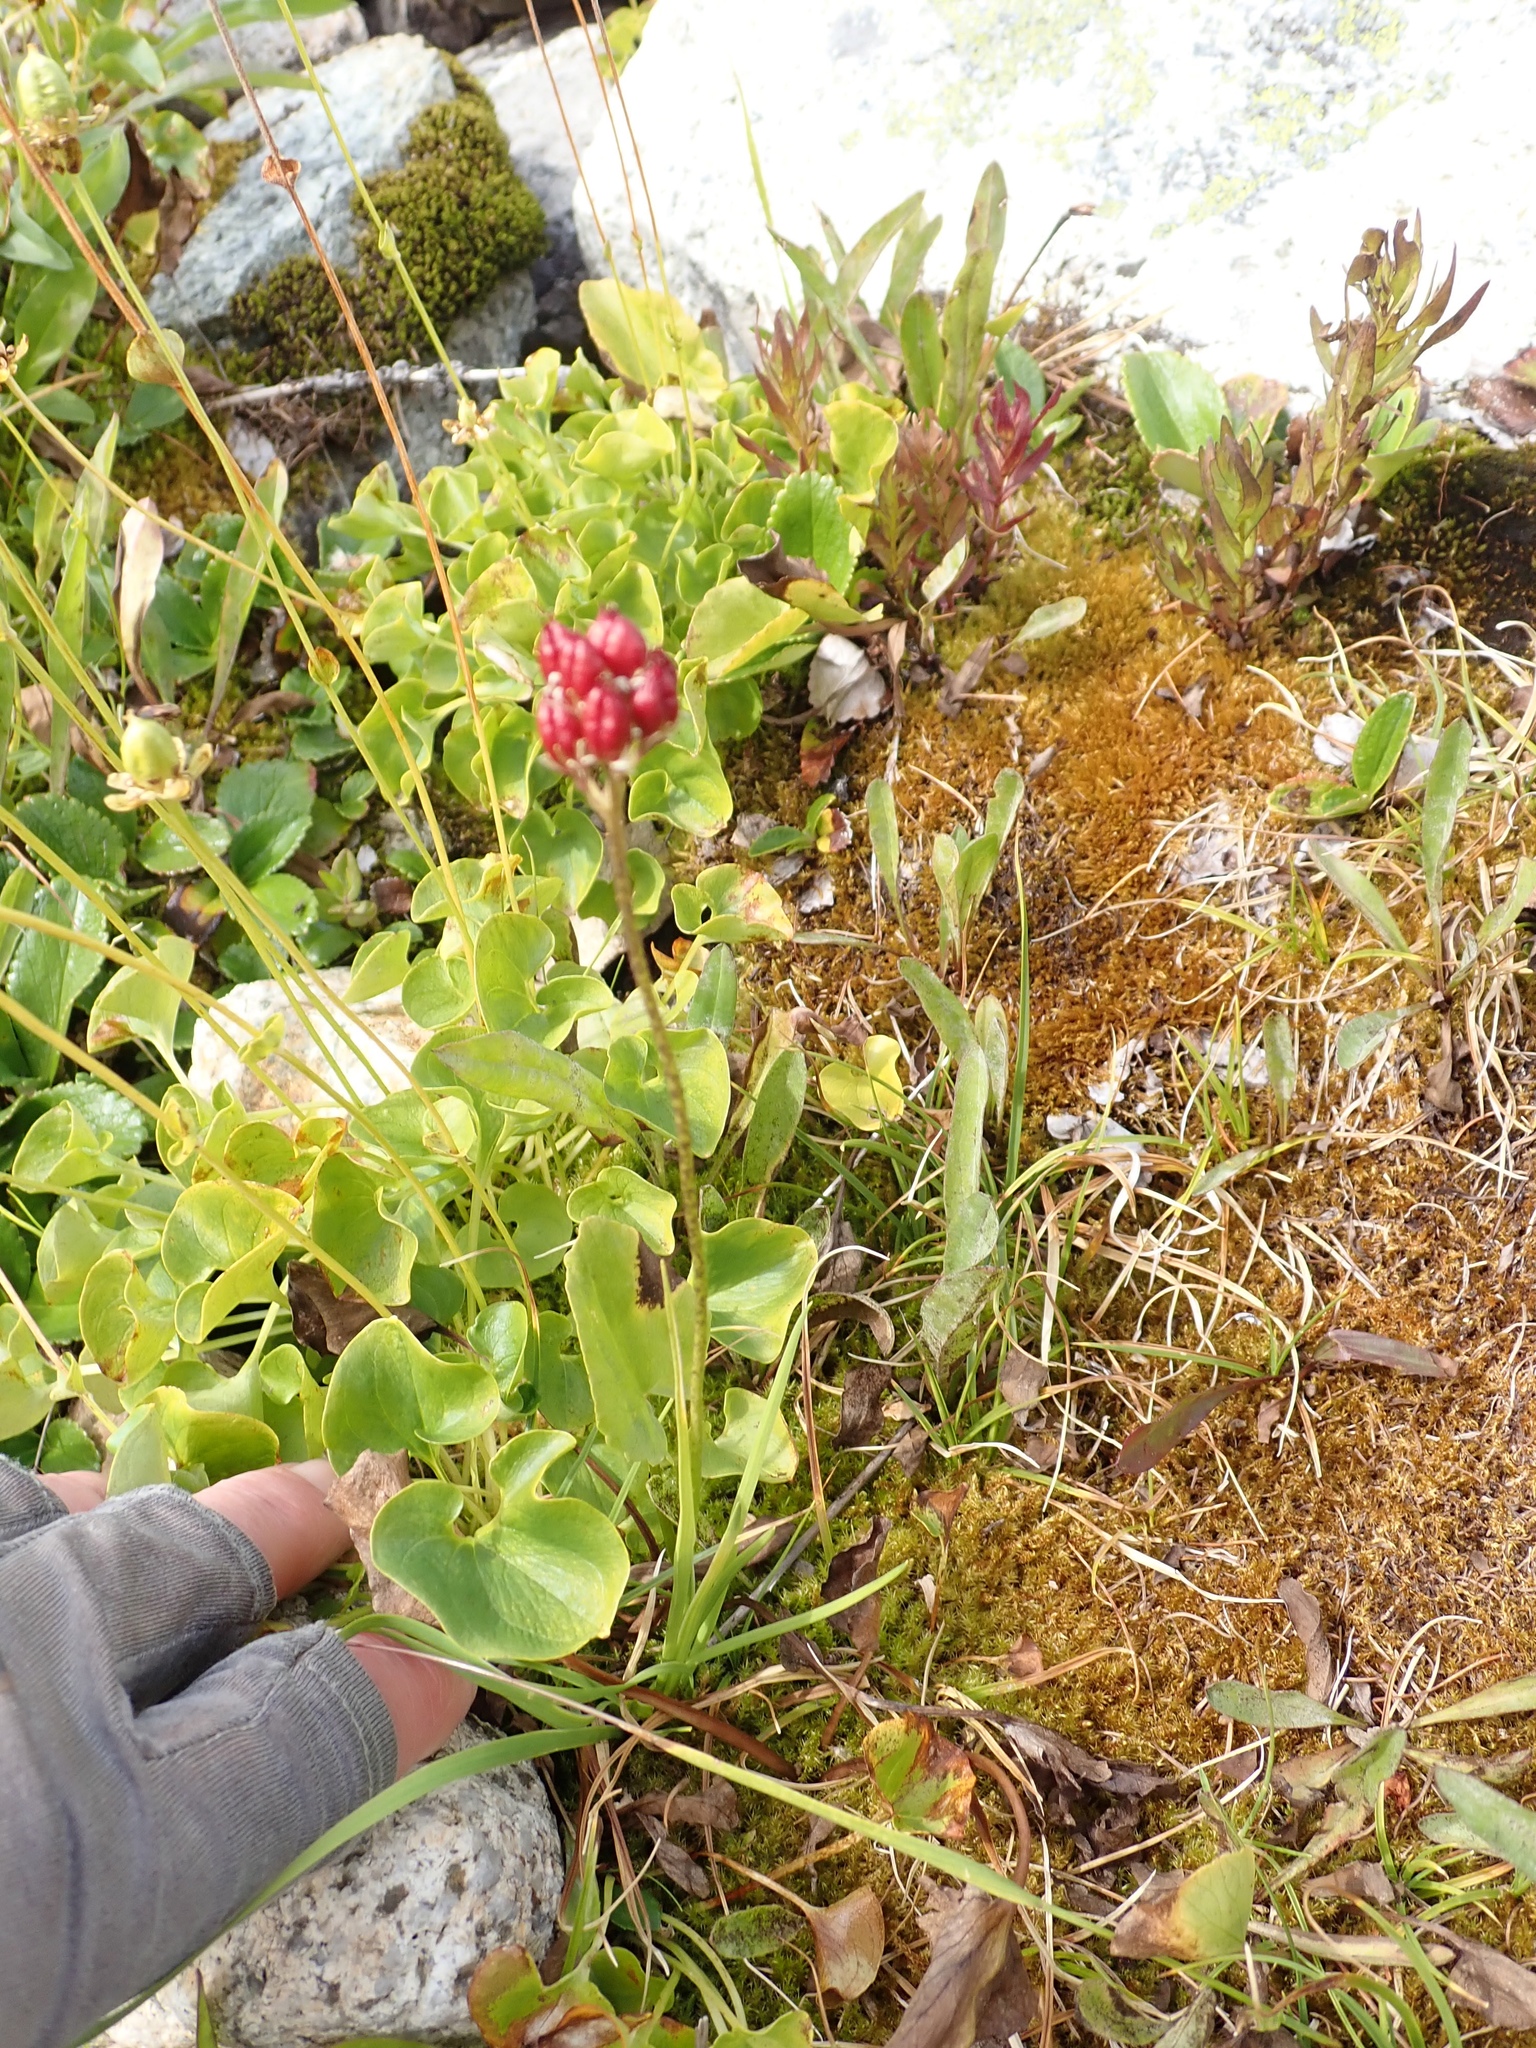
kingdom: Plantae
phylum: Tracheophyta
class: Liliopsida
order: Alismatales
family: Tofieldiaceae
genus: Triantha
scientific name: Triantha occidentalis
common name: Western false asphodel
